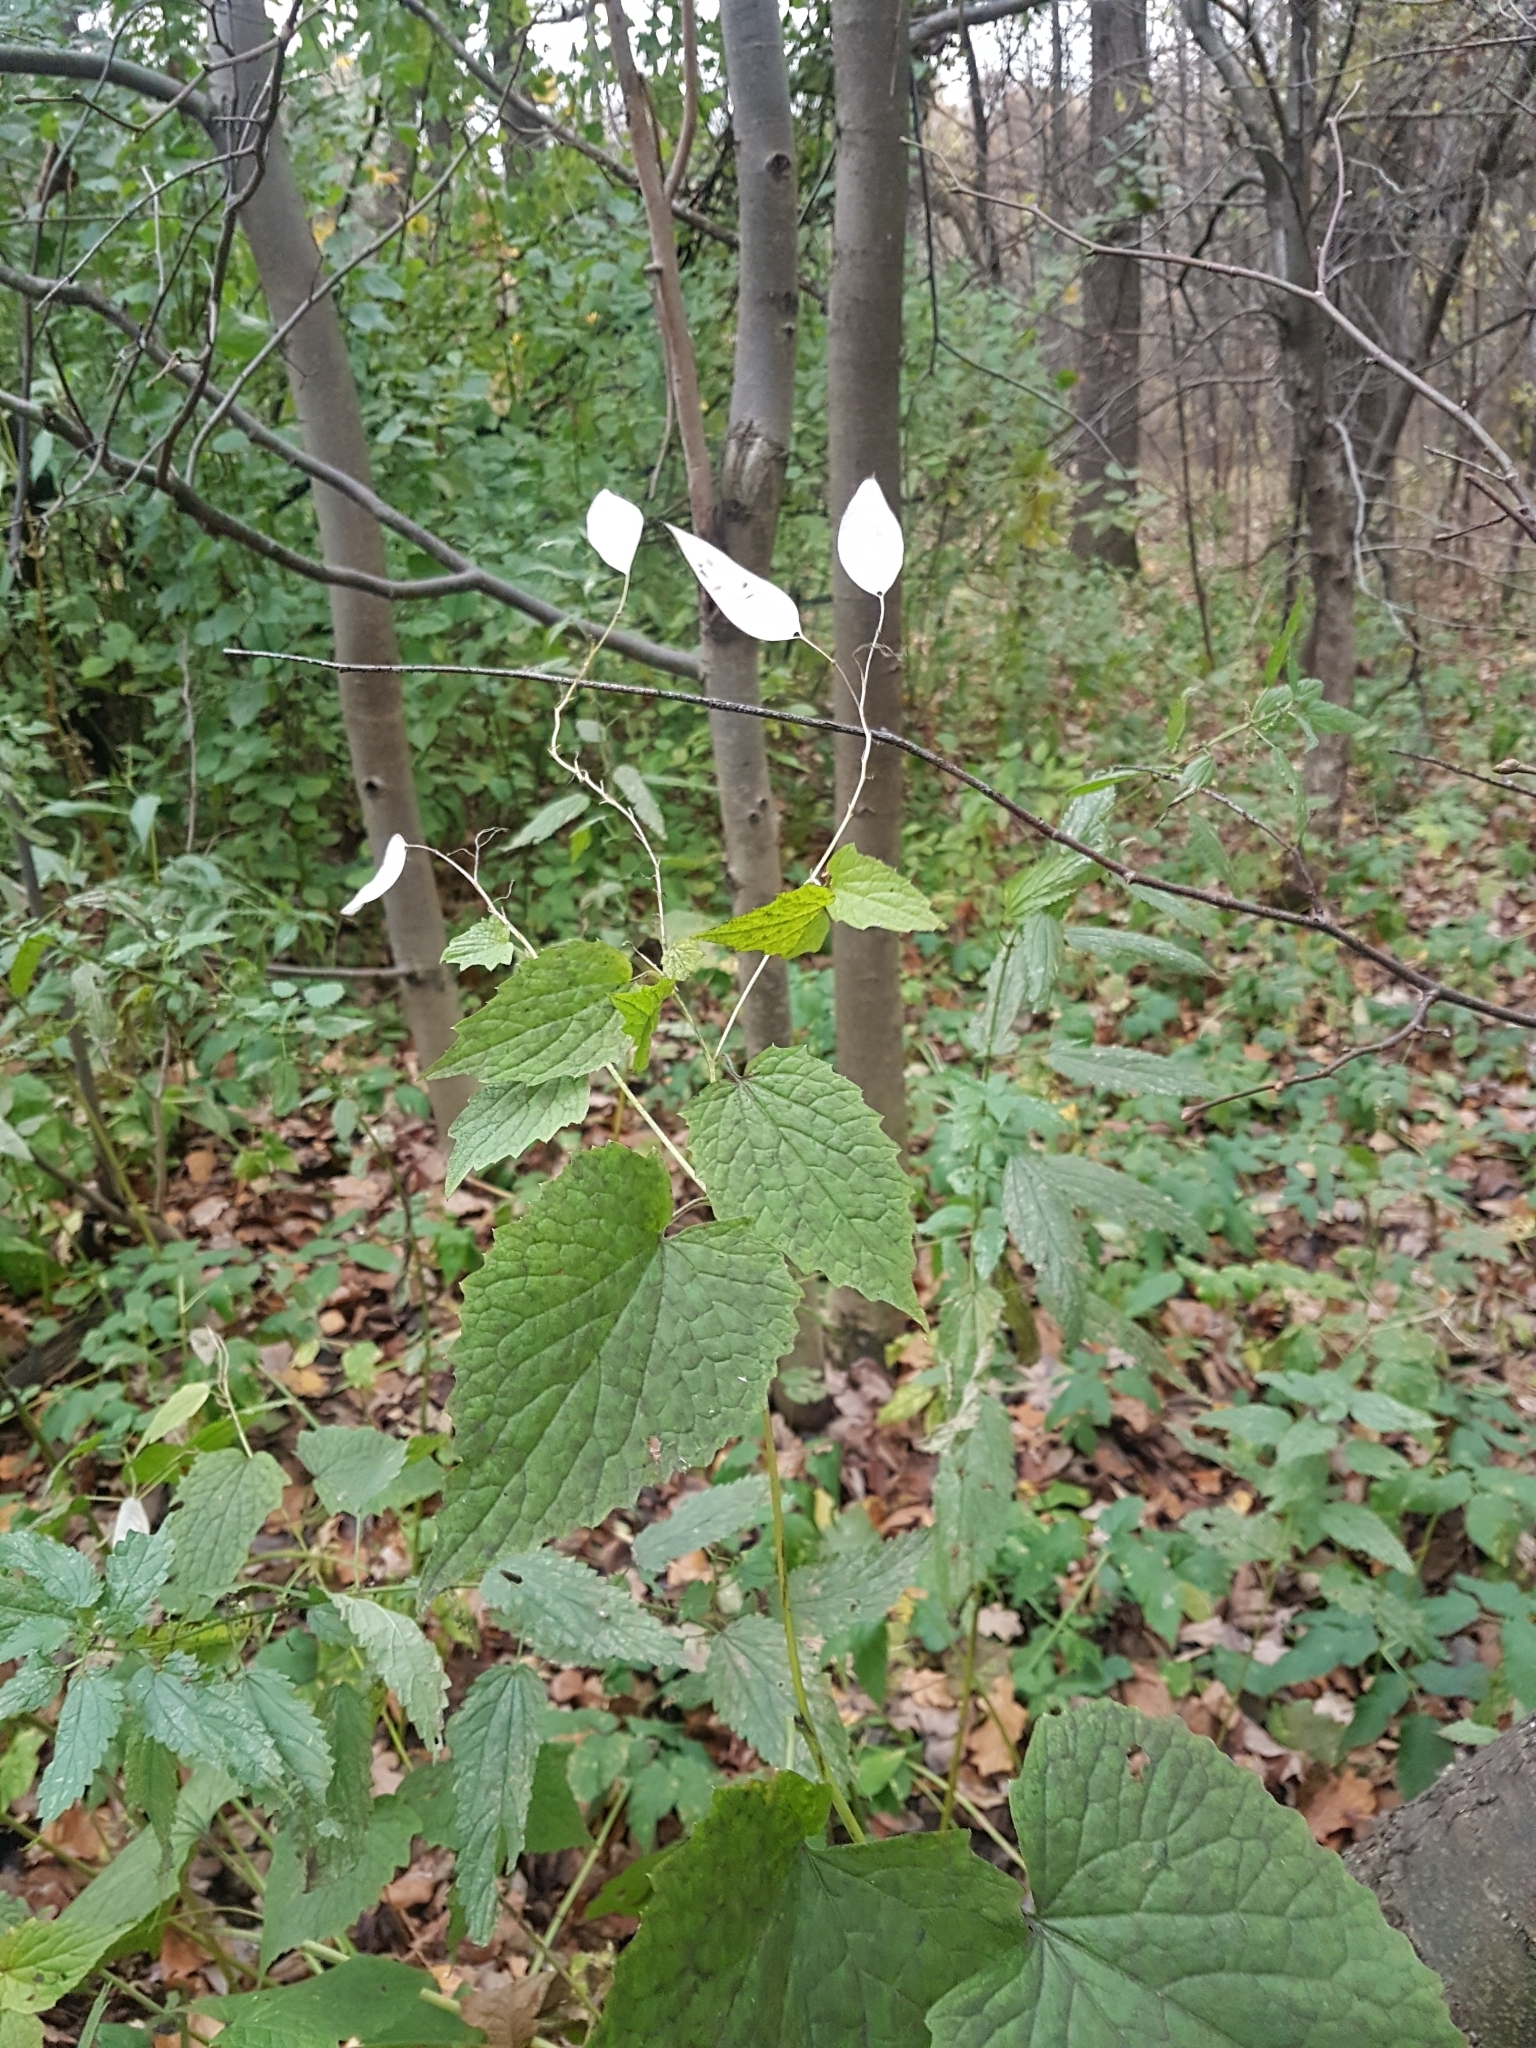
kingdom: Plantae
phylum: Tracheophyta
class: Magnoliopsida
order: Brassicales
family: Brassicaceae
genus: Lunaria
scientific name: Lunaria rediviva
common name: Perennial honesty
